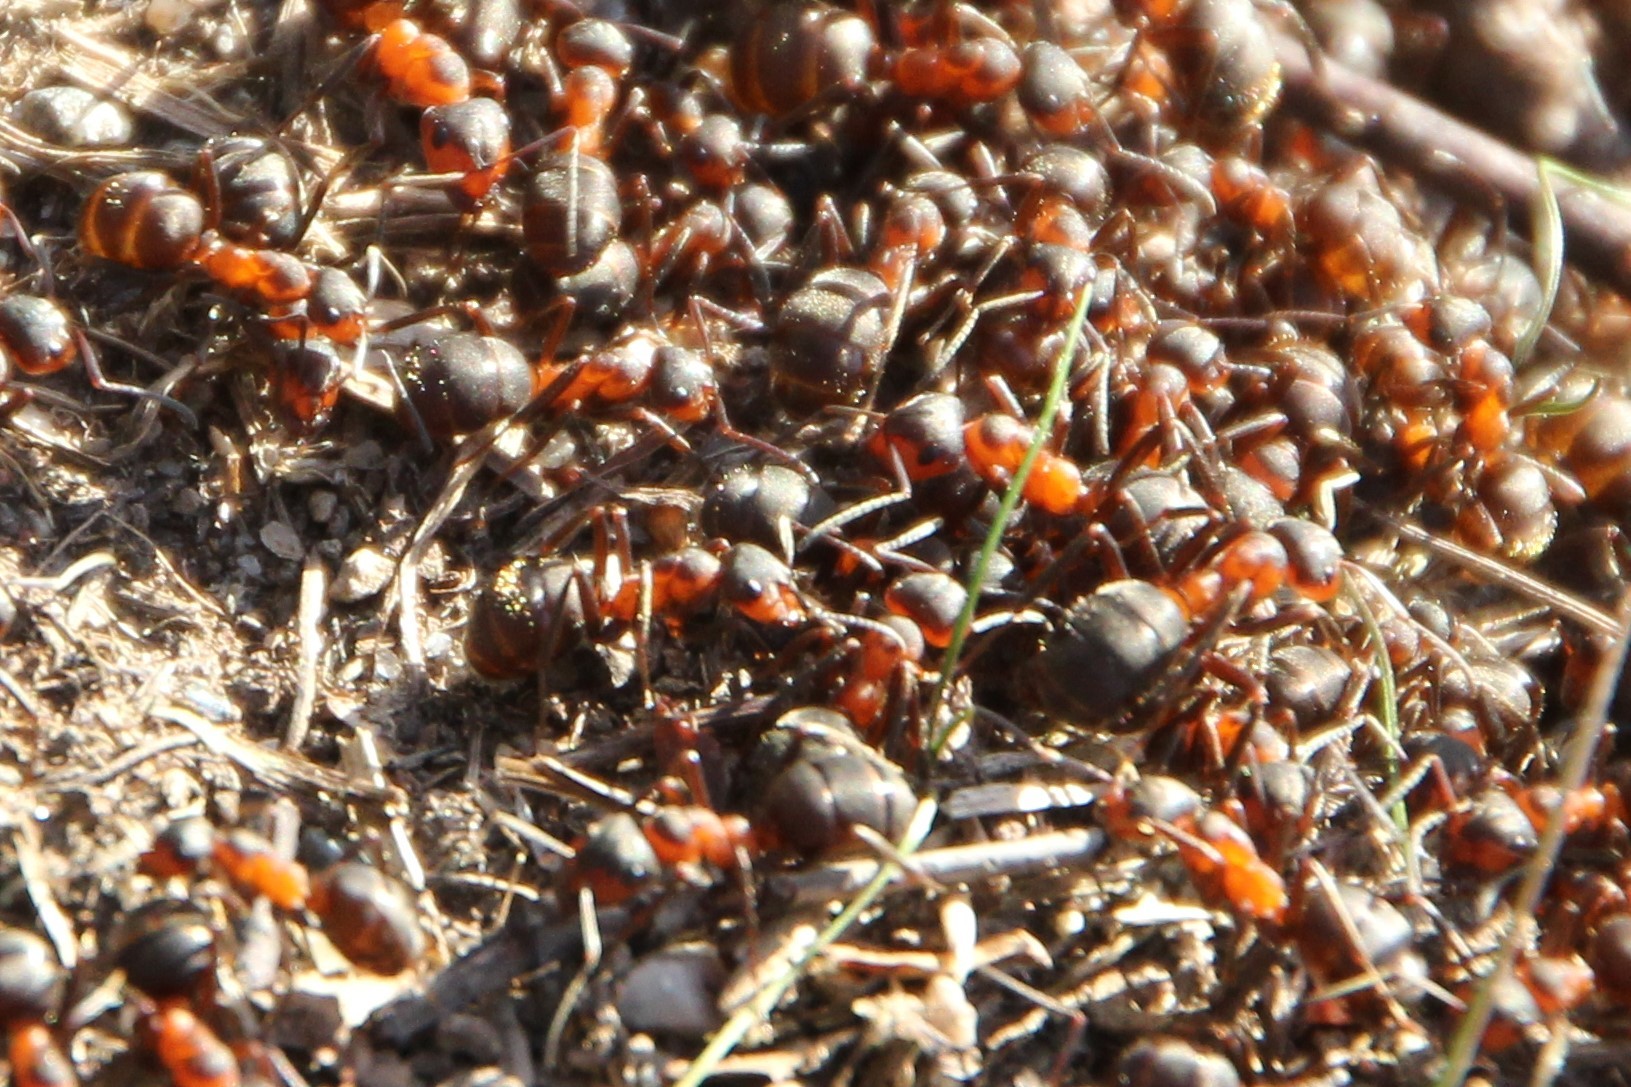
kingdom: Animalia
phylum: Arthropoda
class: Insecta
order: Hymenoptera
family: Formicidae
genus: Formica
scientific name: Formica
